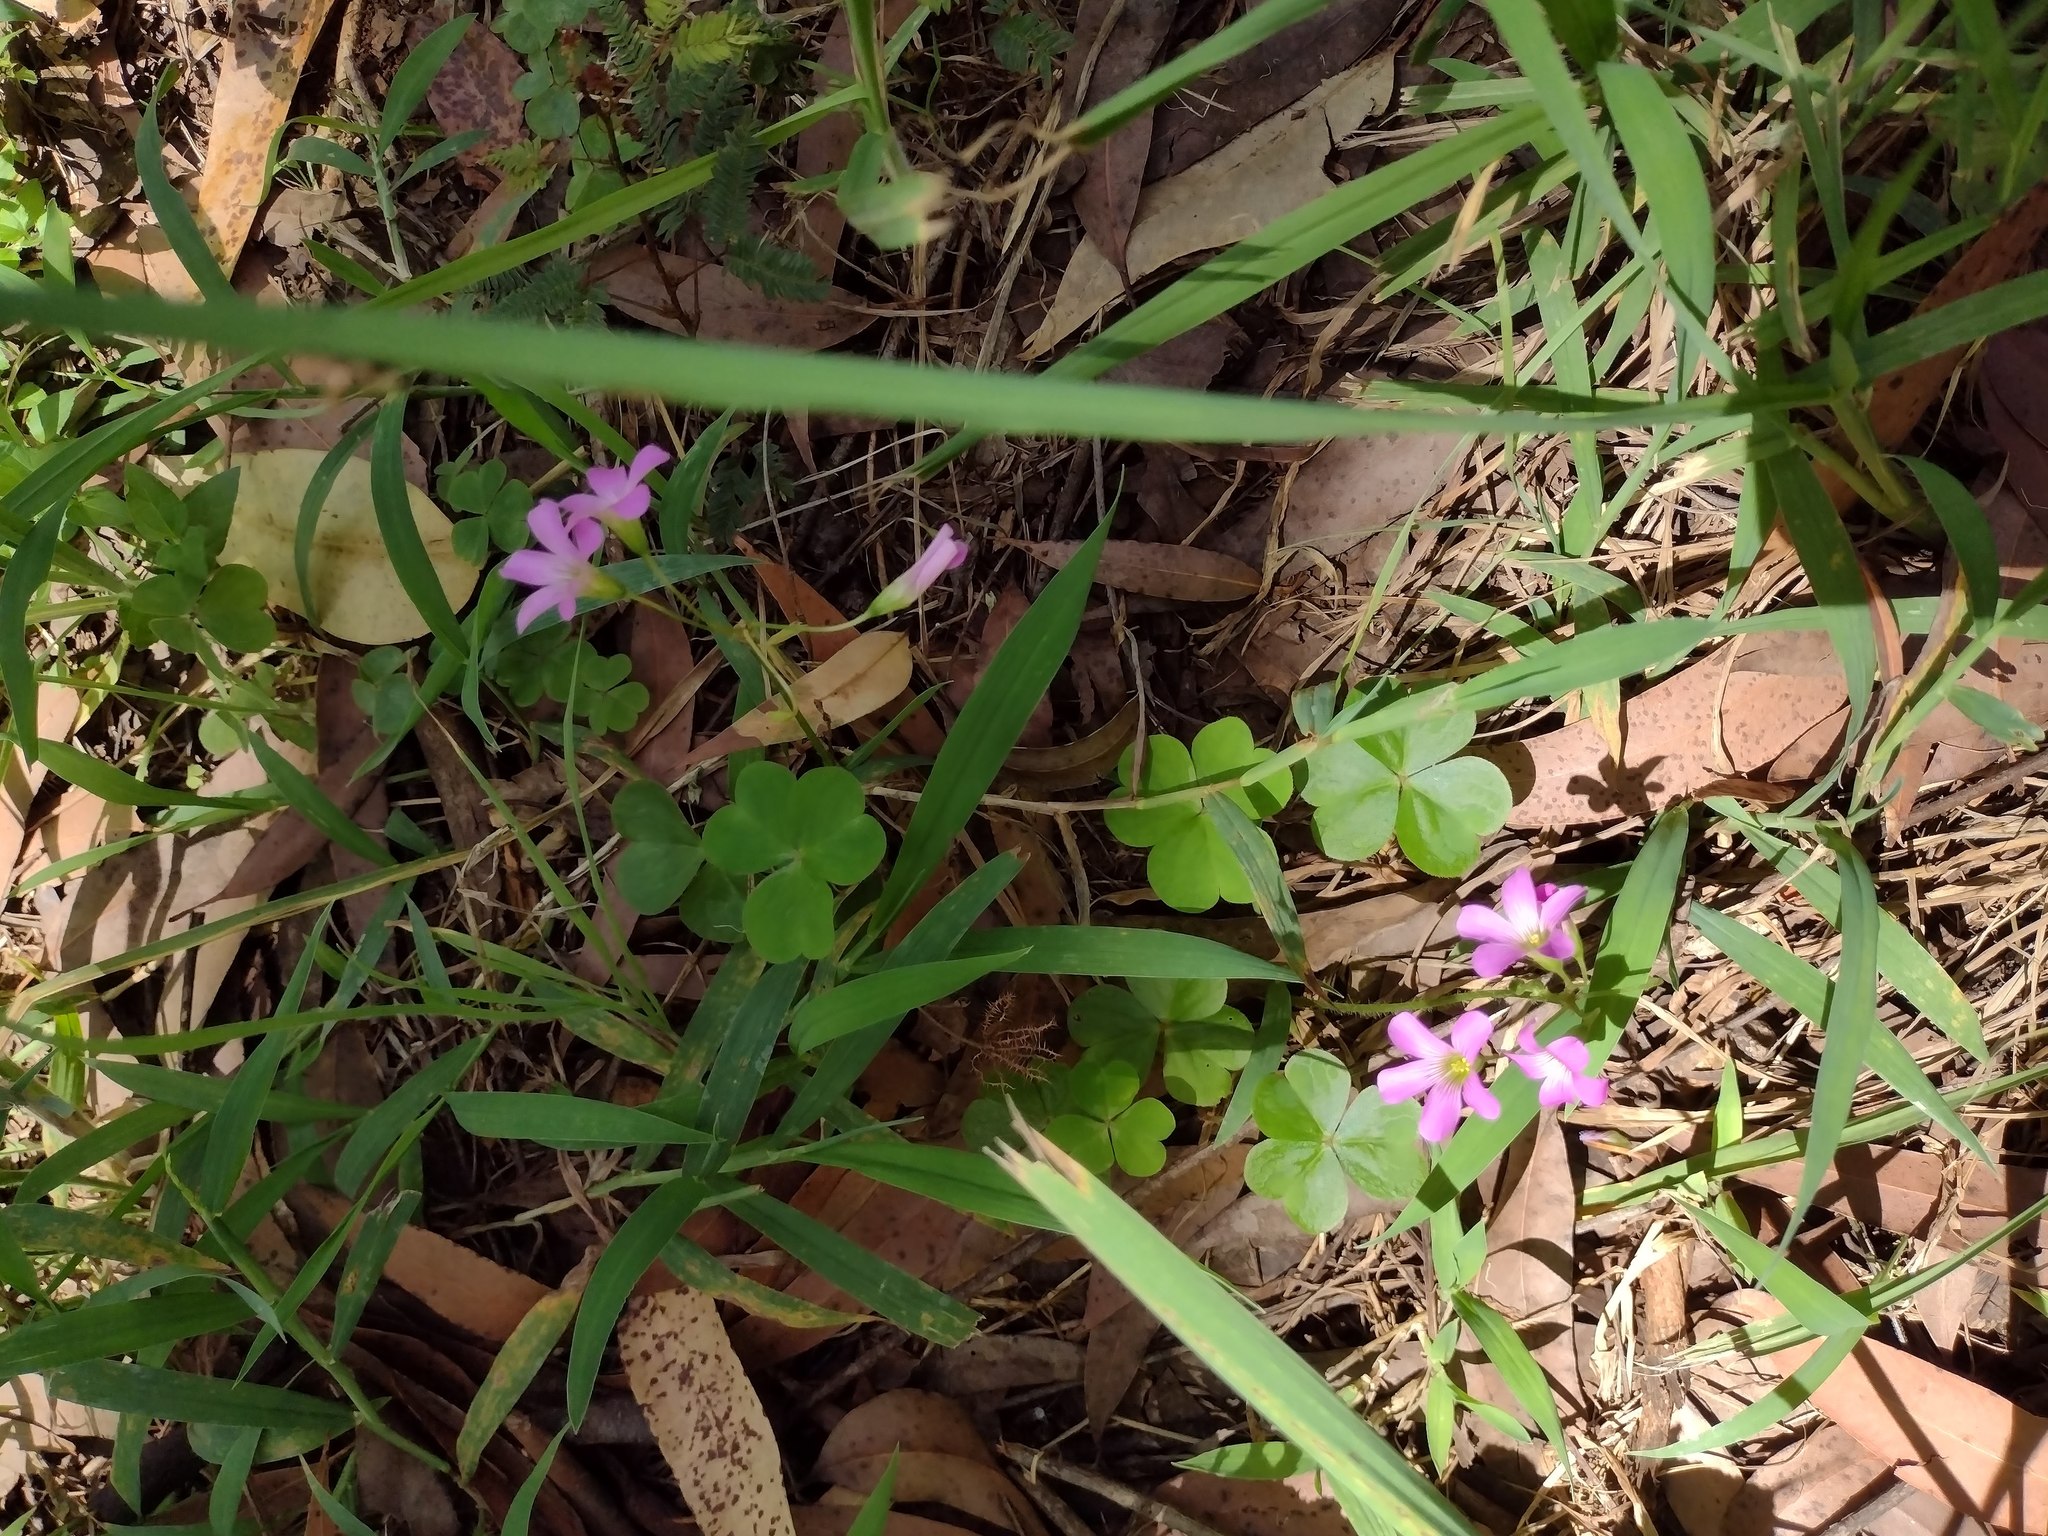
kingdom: Plantae
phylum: Tracheophyta
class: Magnoliopsida
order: Oxalidales
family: Oxalidaceae
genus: Oxalis
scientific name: Oxalis debilis
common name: Large-flowered pink-sorrel
